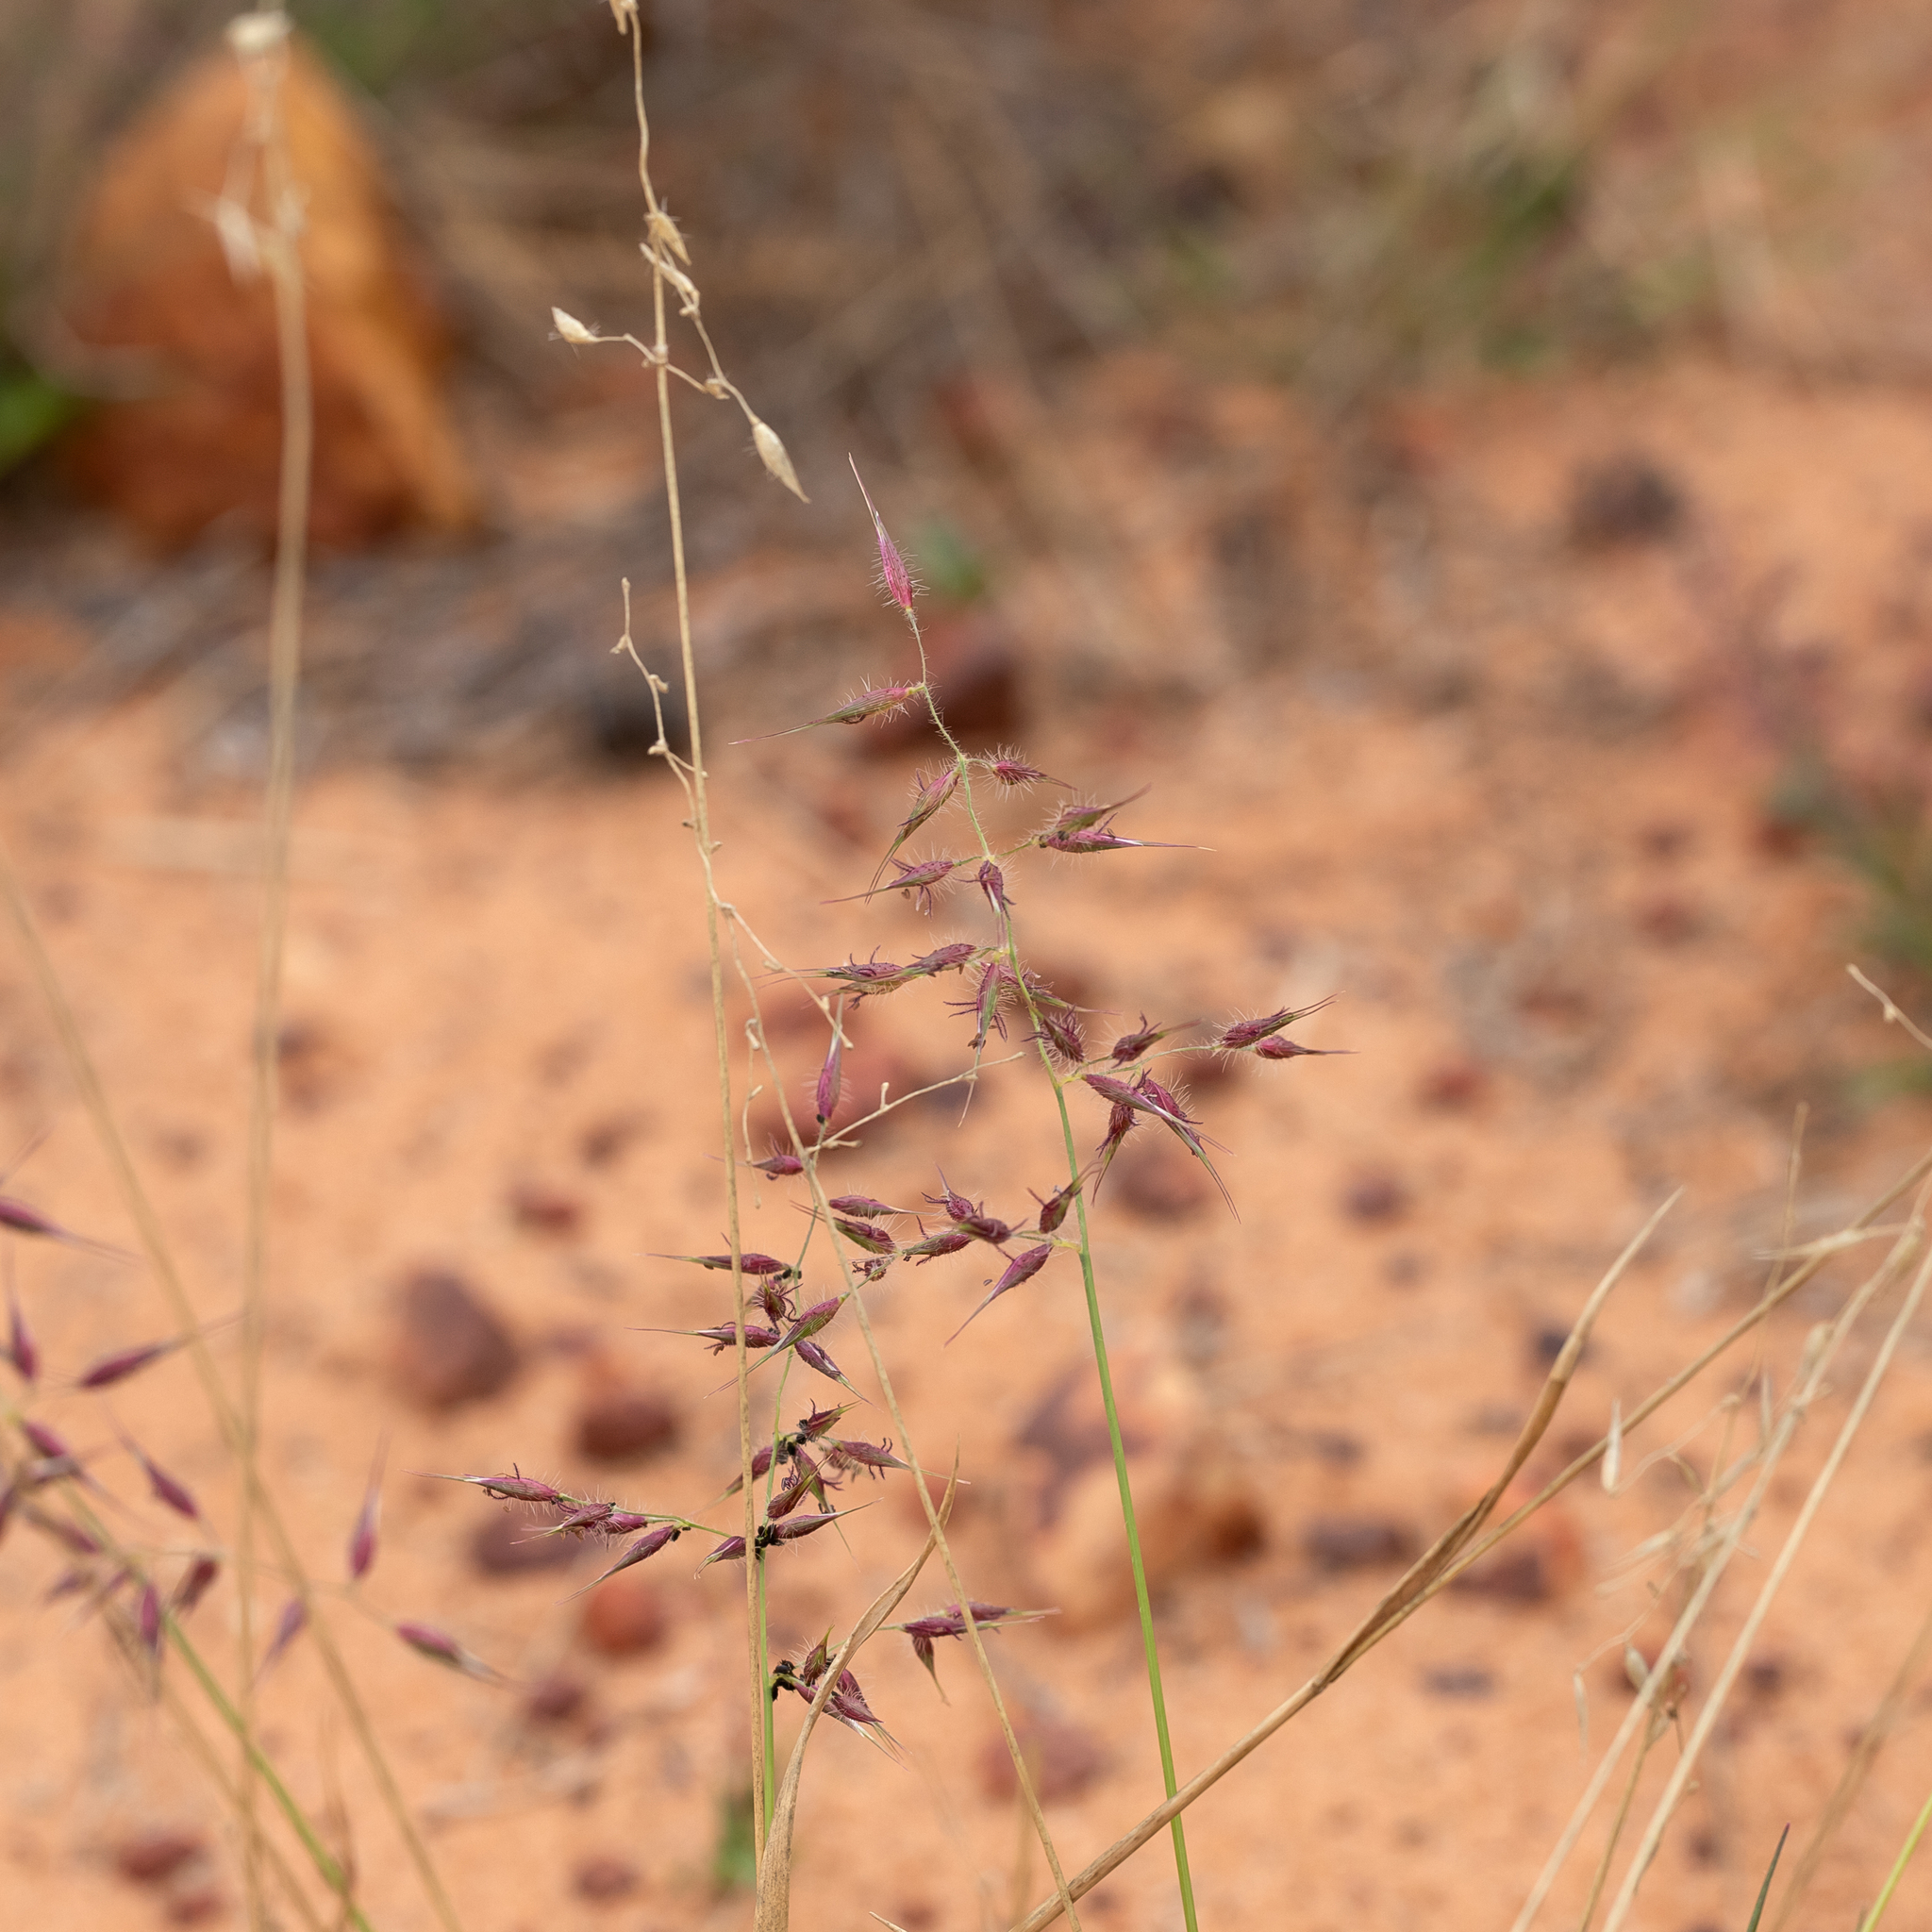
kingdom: Plantae
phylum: Tracheophyta
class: Liliopsida
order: Poales
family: Poaceae
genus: Eriachne
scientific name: Eriachne aristidea
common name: Three-awn wanderrie grass
